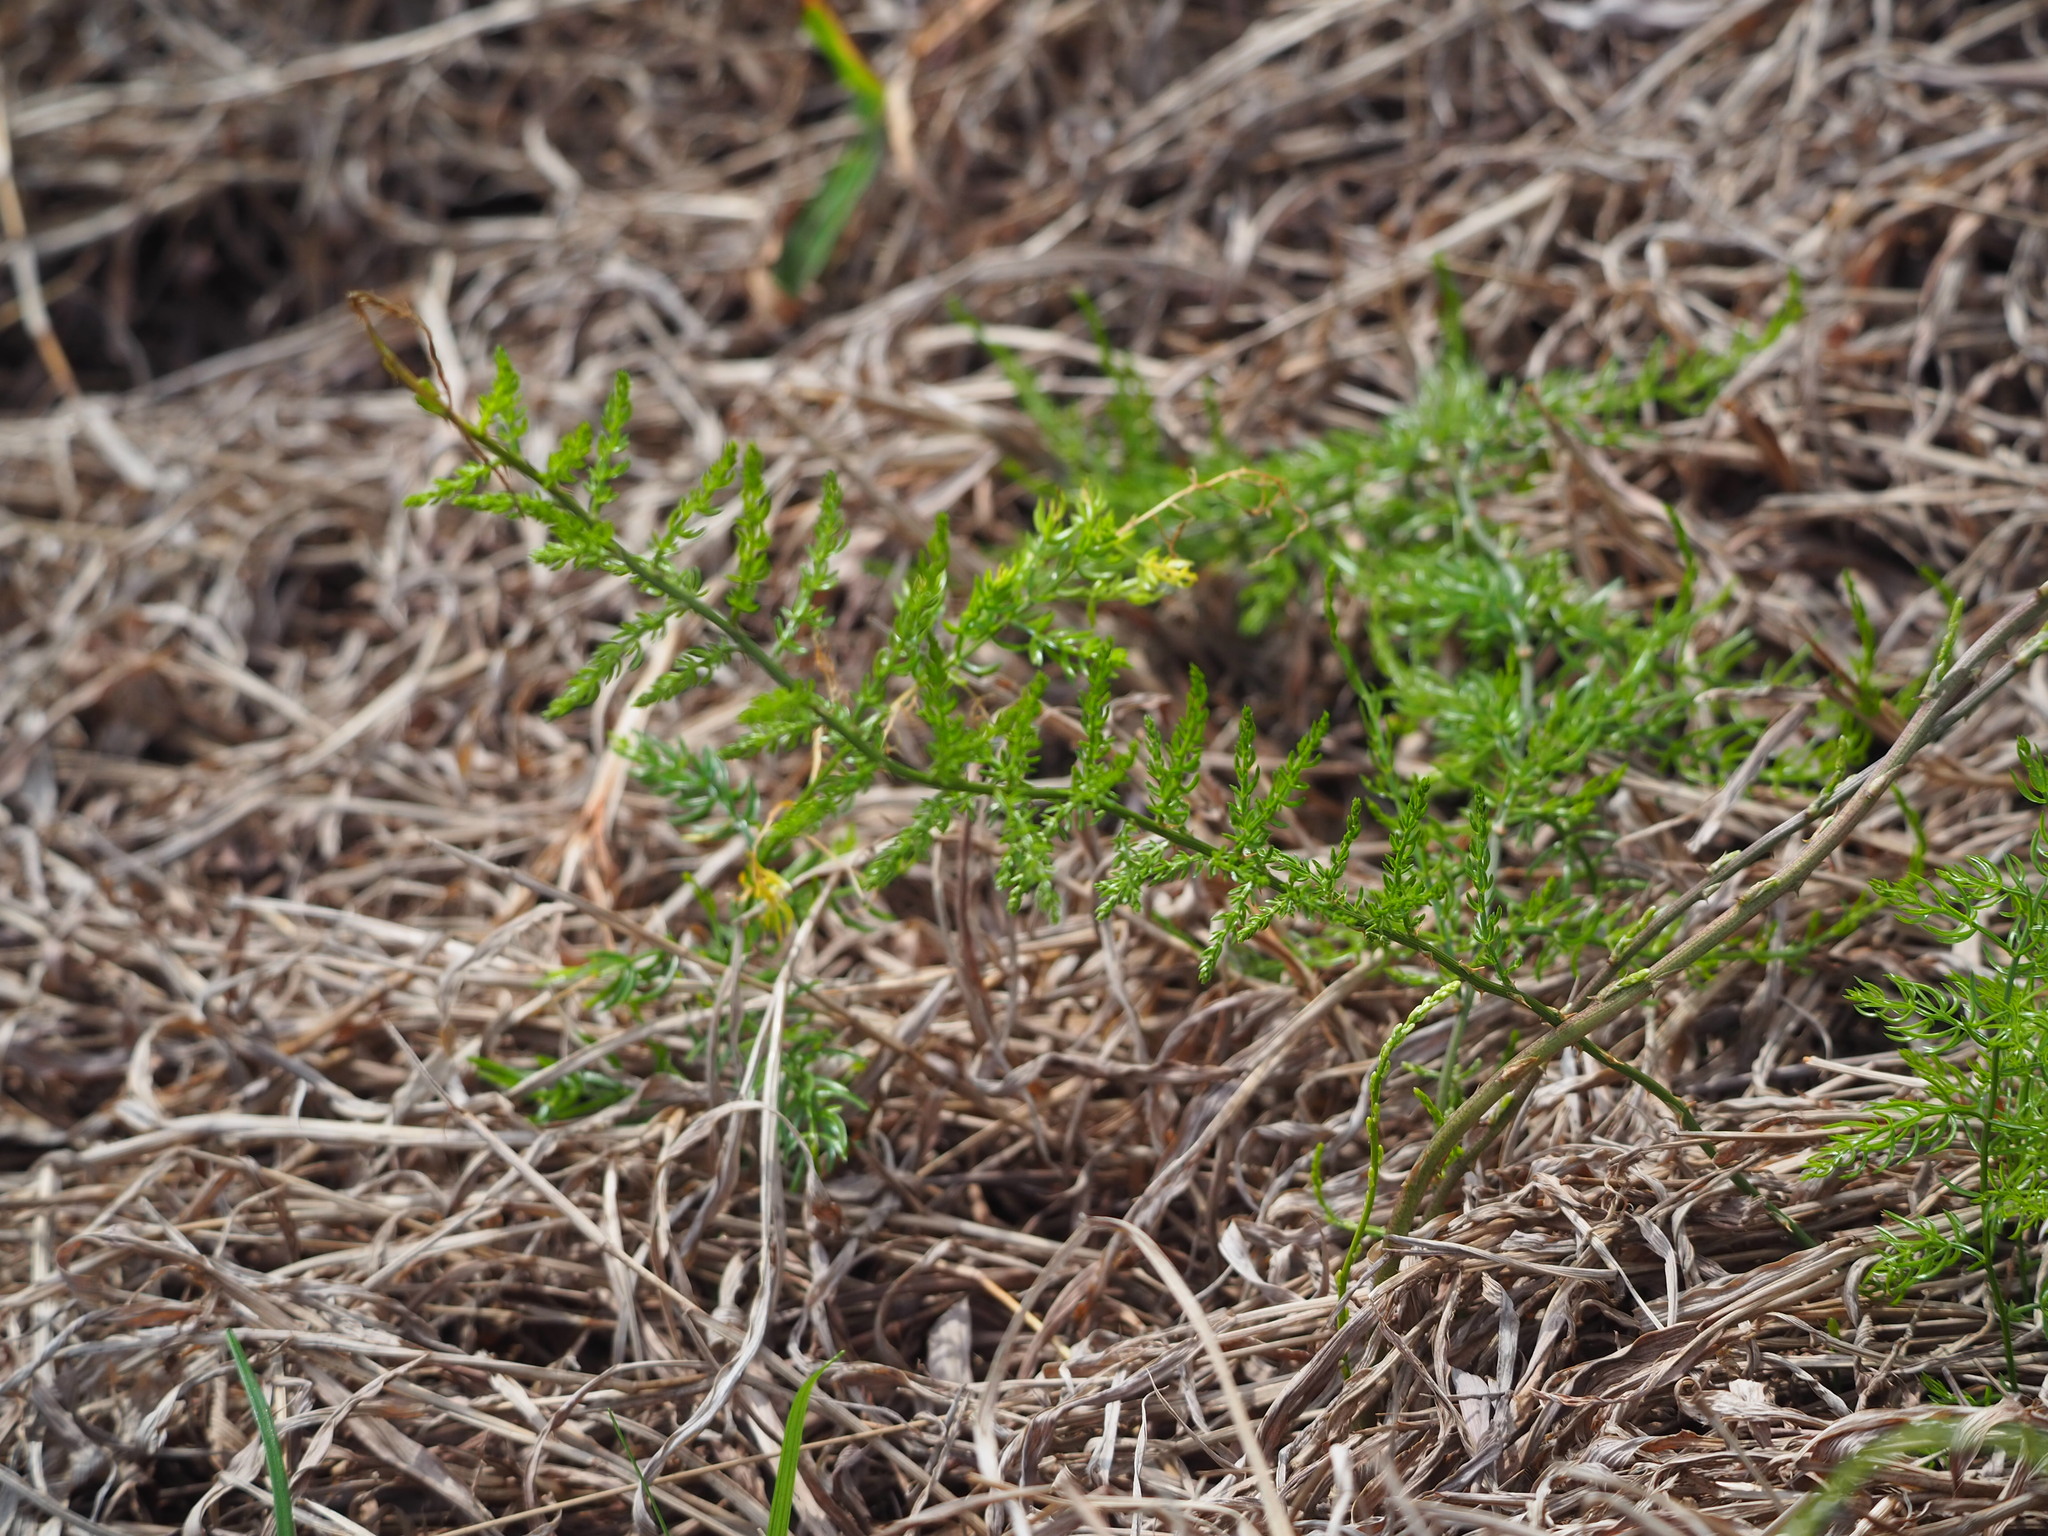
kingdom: Plantae
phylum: Tracheophyta
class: Liliopsida
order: Asparagales
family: Asparagaceae
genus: Asparagus
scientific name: Asparagus cochinchinensis
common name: Chinese asparagus
